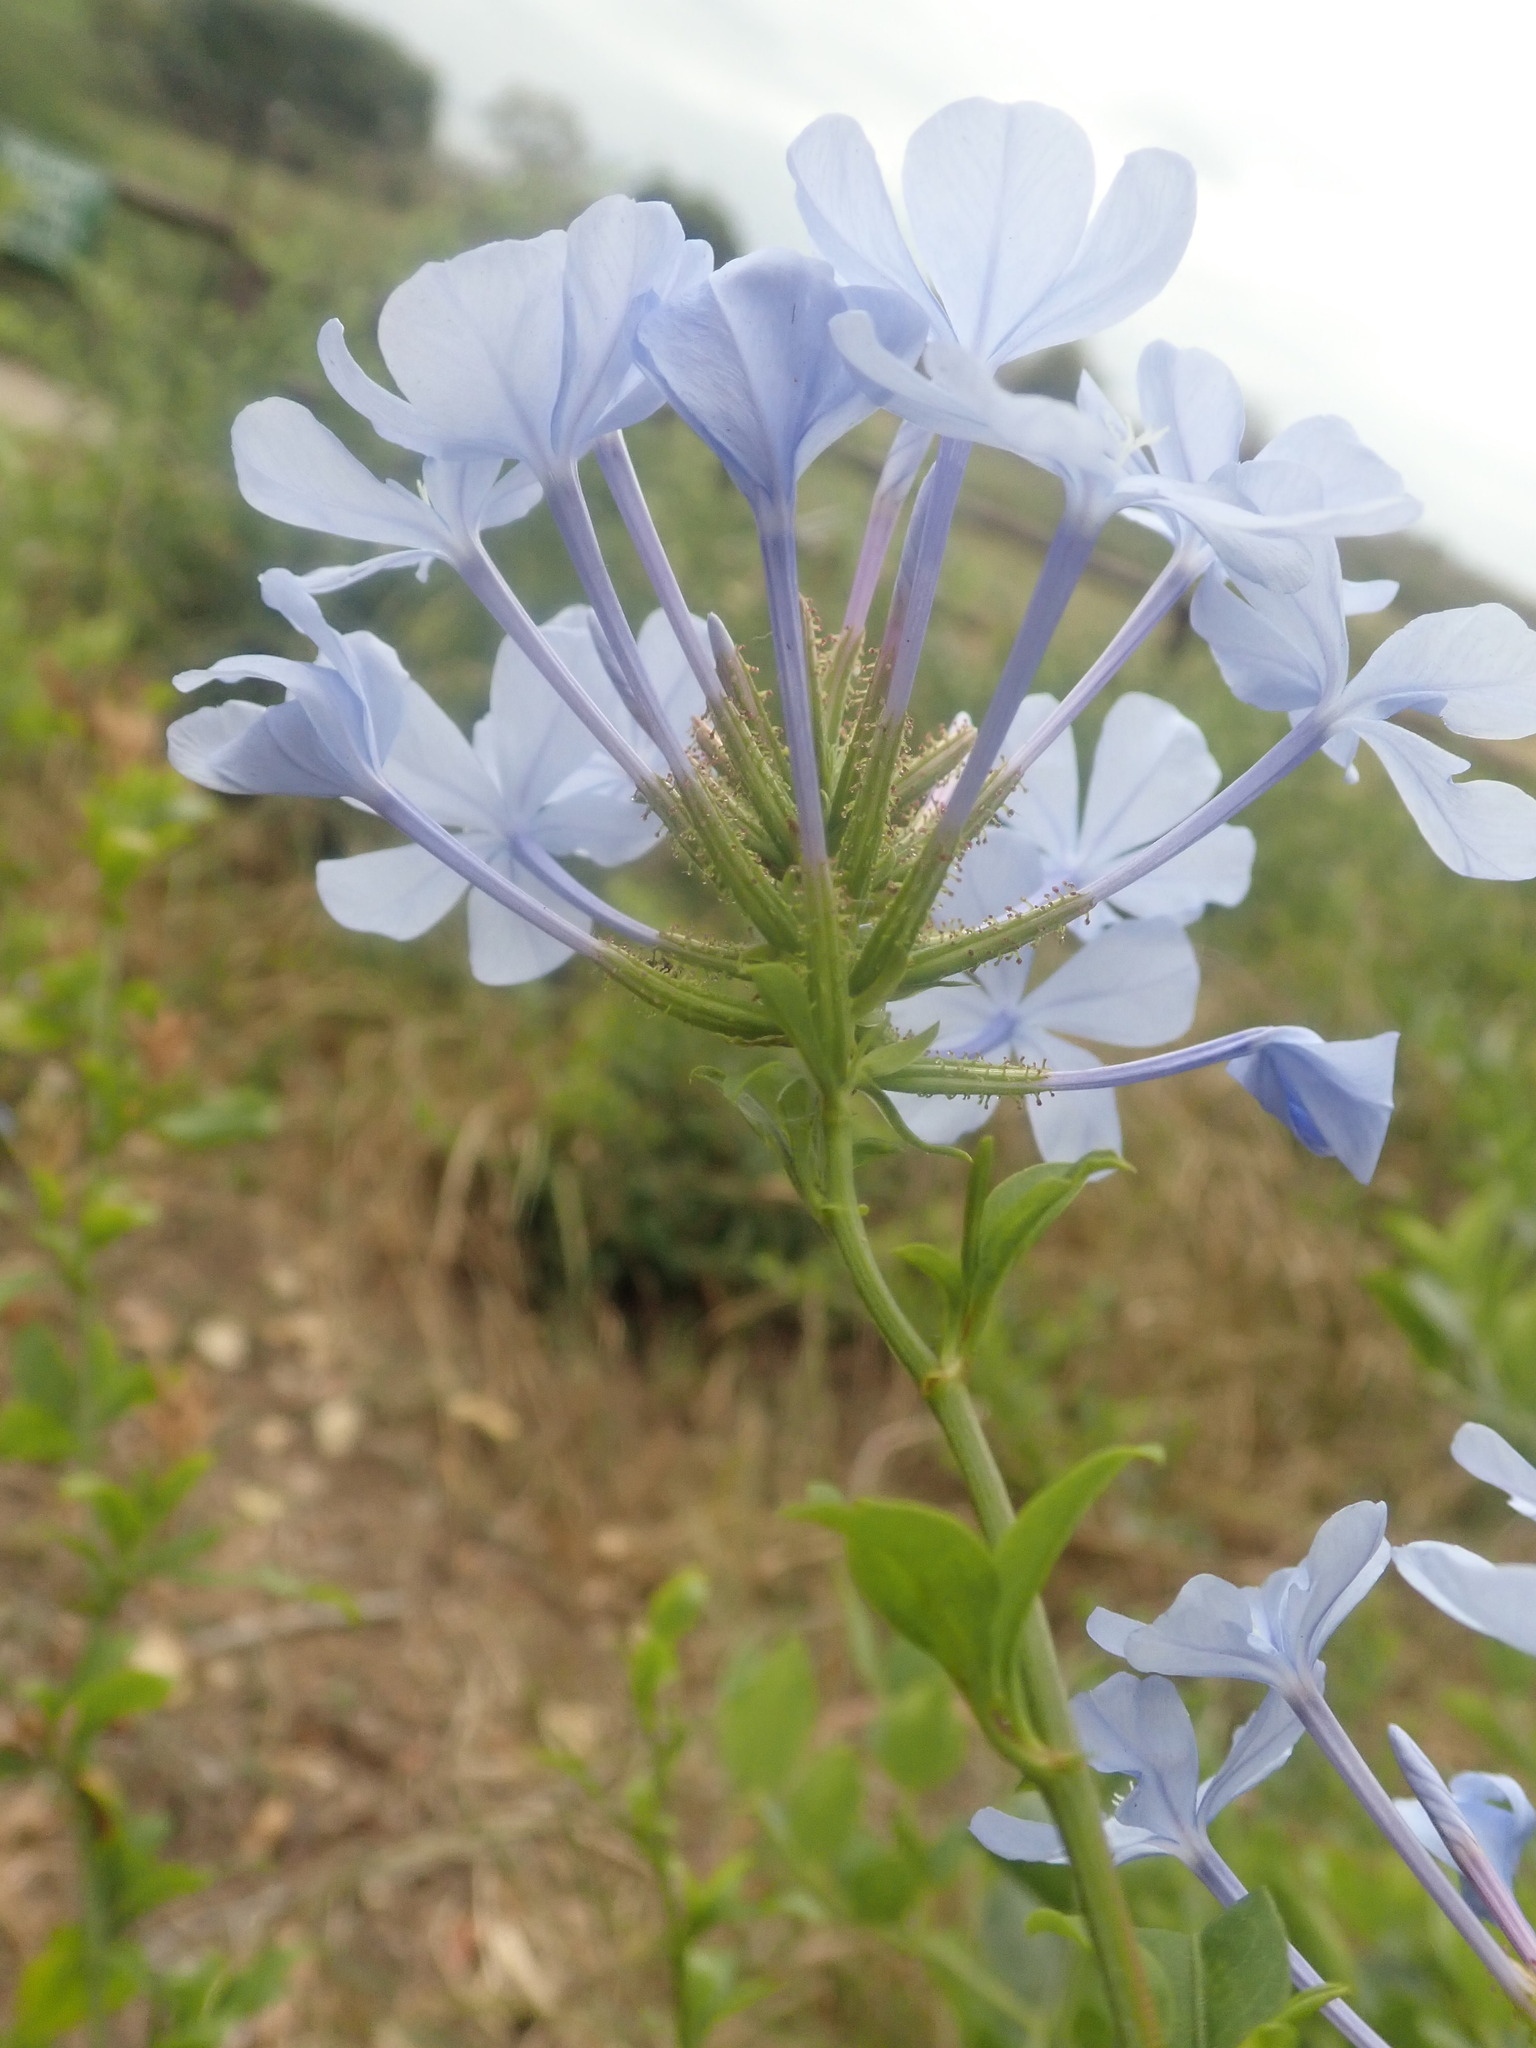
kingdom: Plantae
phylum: Tracheophyta
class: Magnoliopsida
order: Caryophyllales
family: Plumbaginaceae
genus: Plumbago
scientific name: Plumbago auriculata
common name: Cape leadwort
